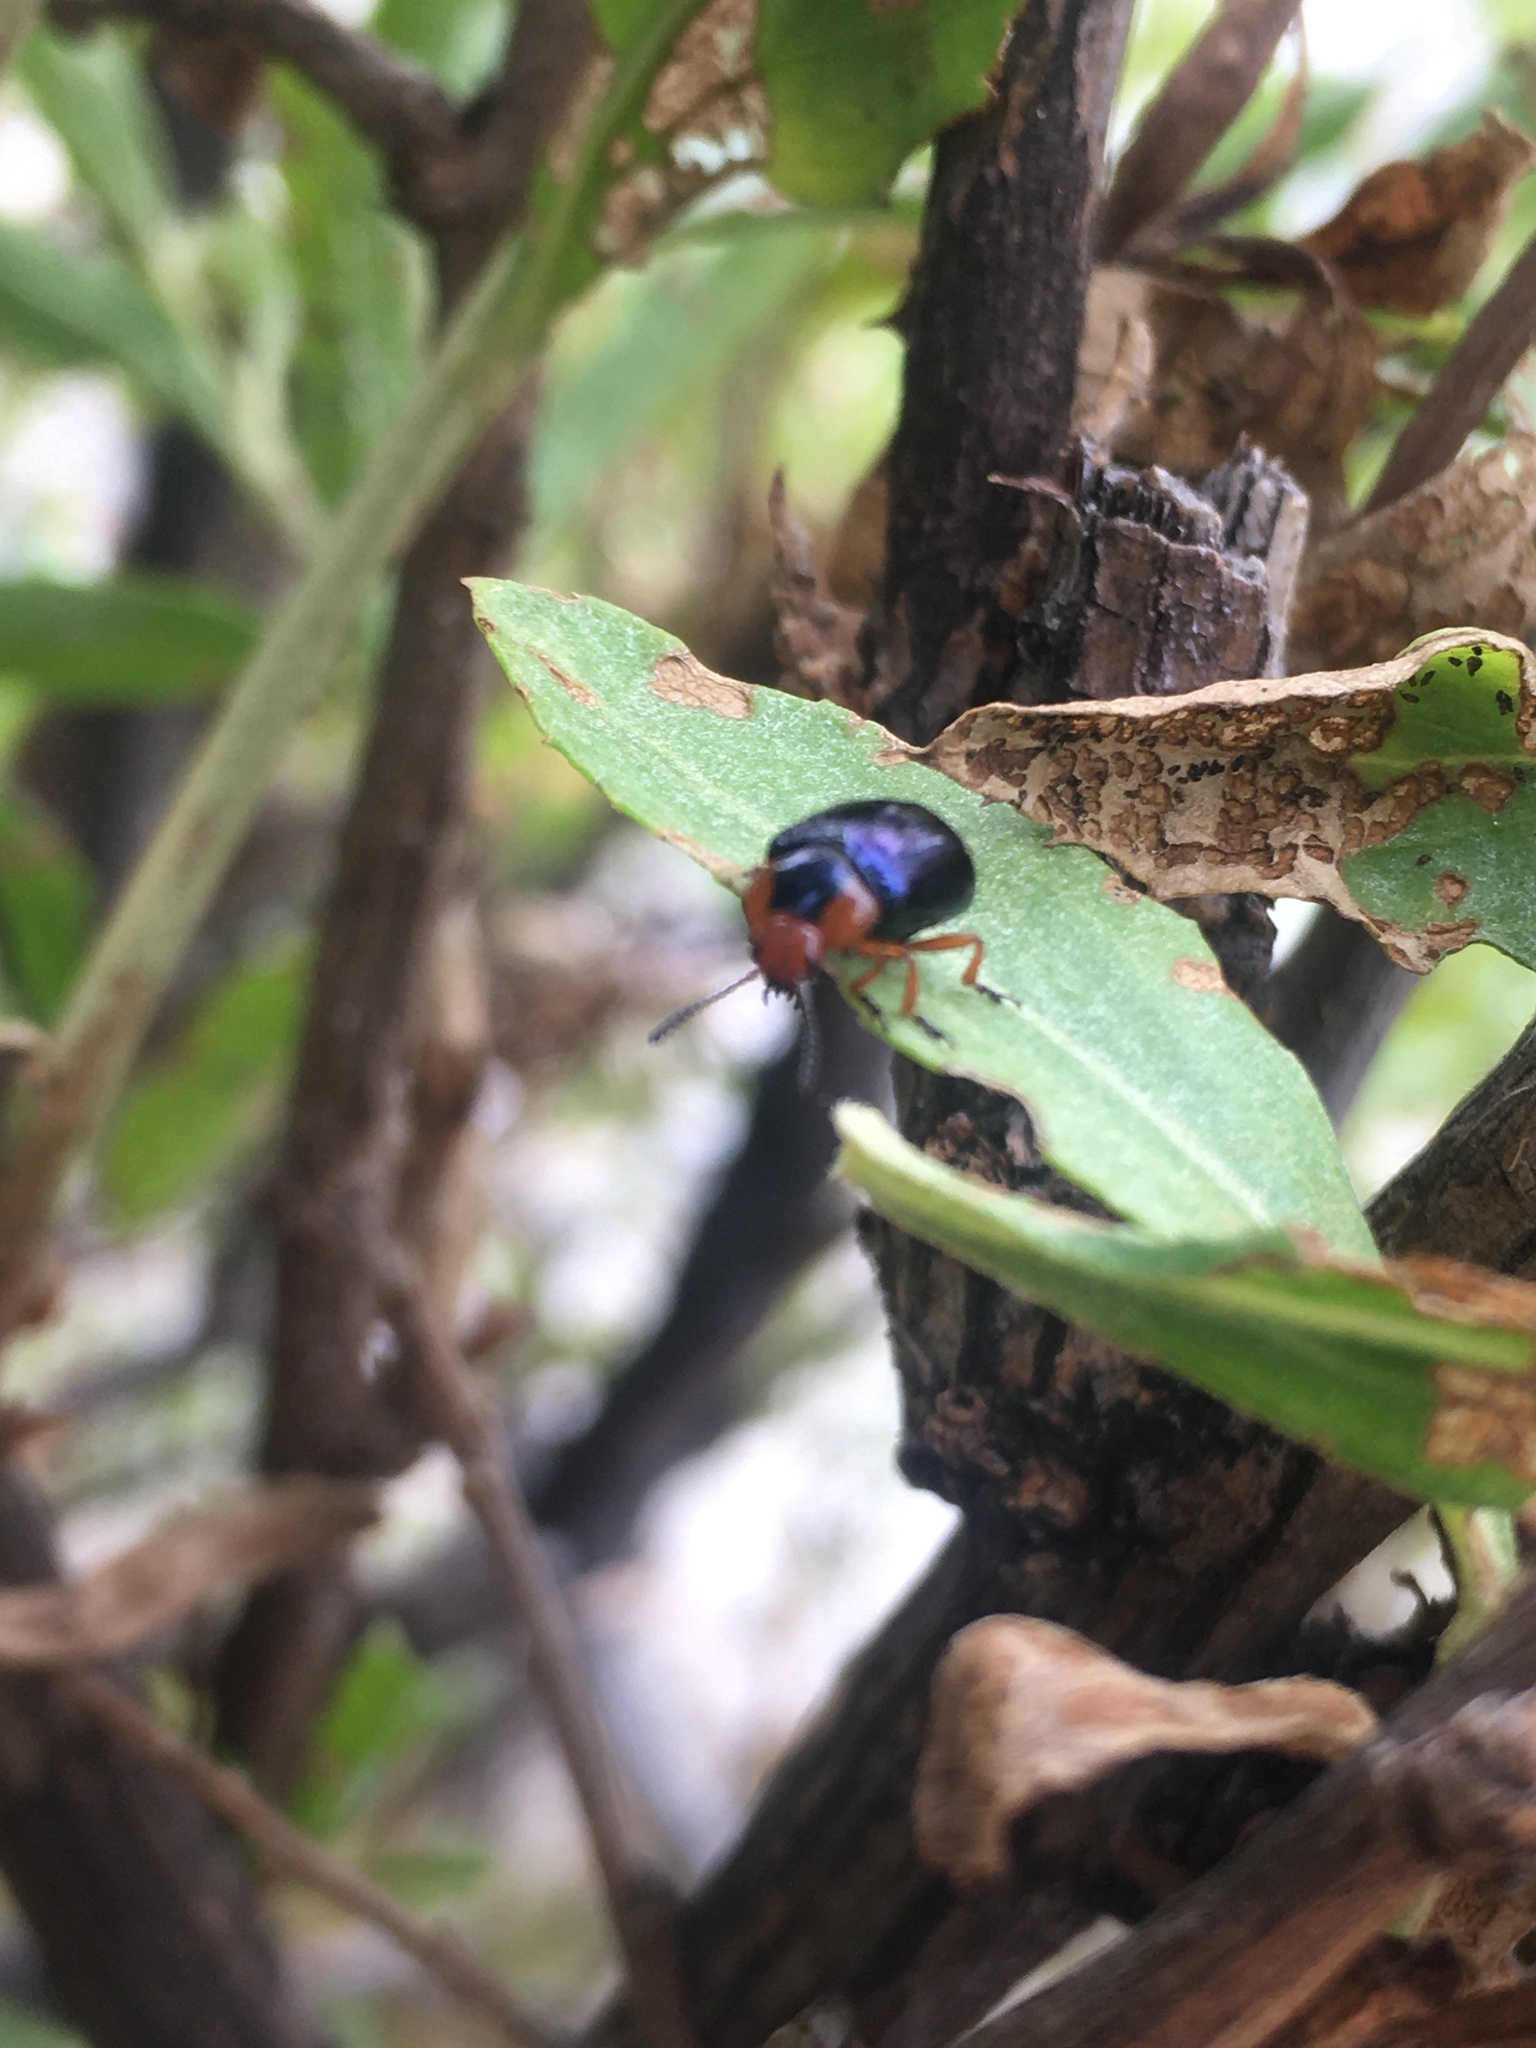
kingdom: Animalia
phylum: Arthropoda
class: Insecta
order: Coleoptera
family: Chrysomelidae
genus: Phaedon
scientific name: Phaedon
